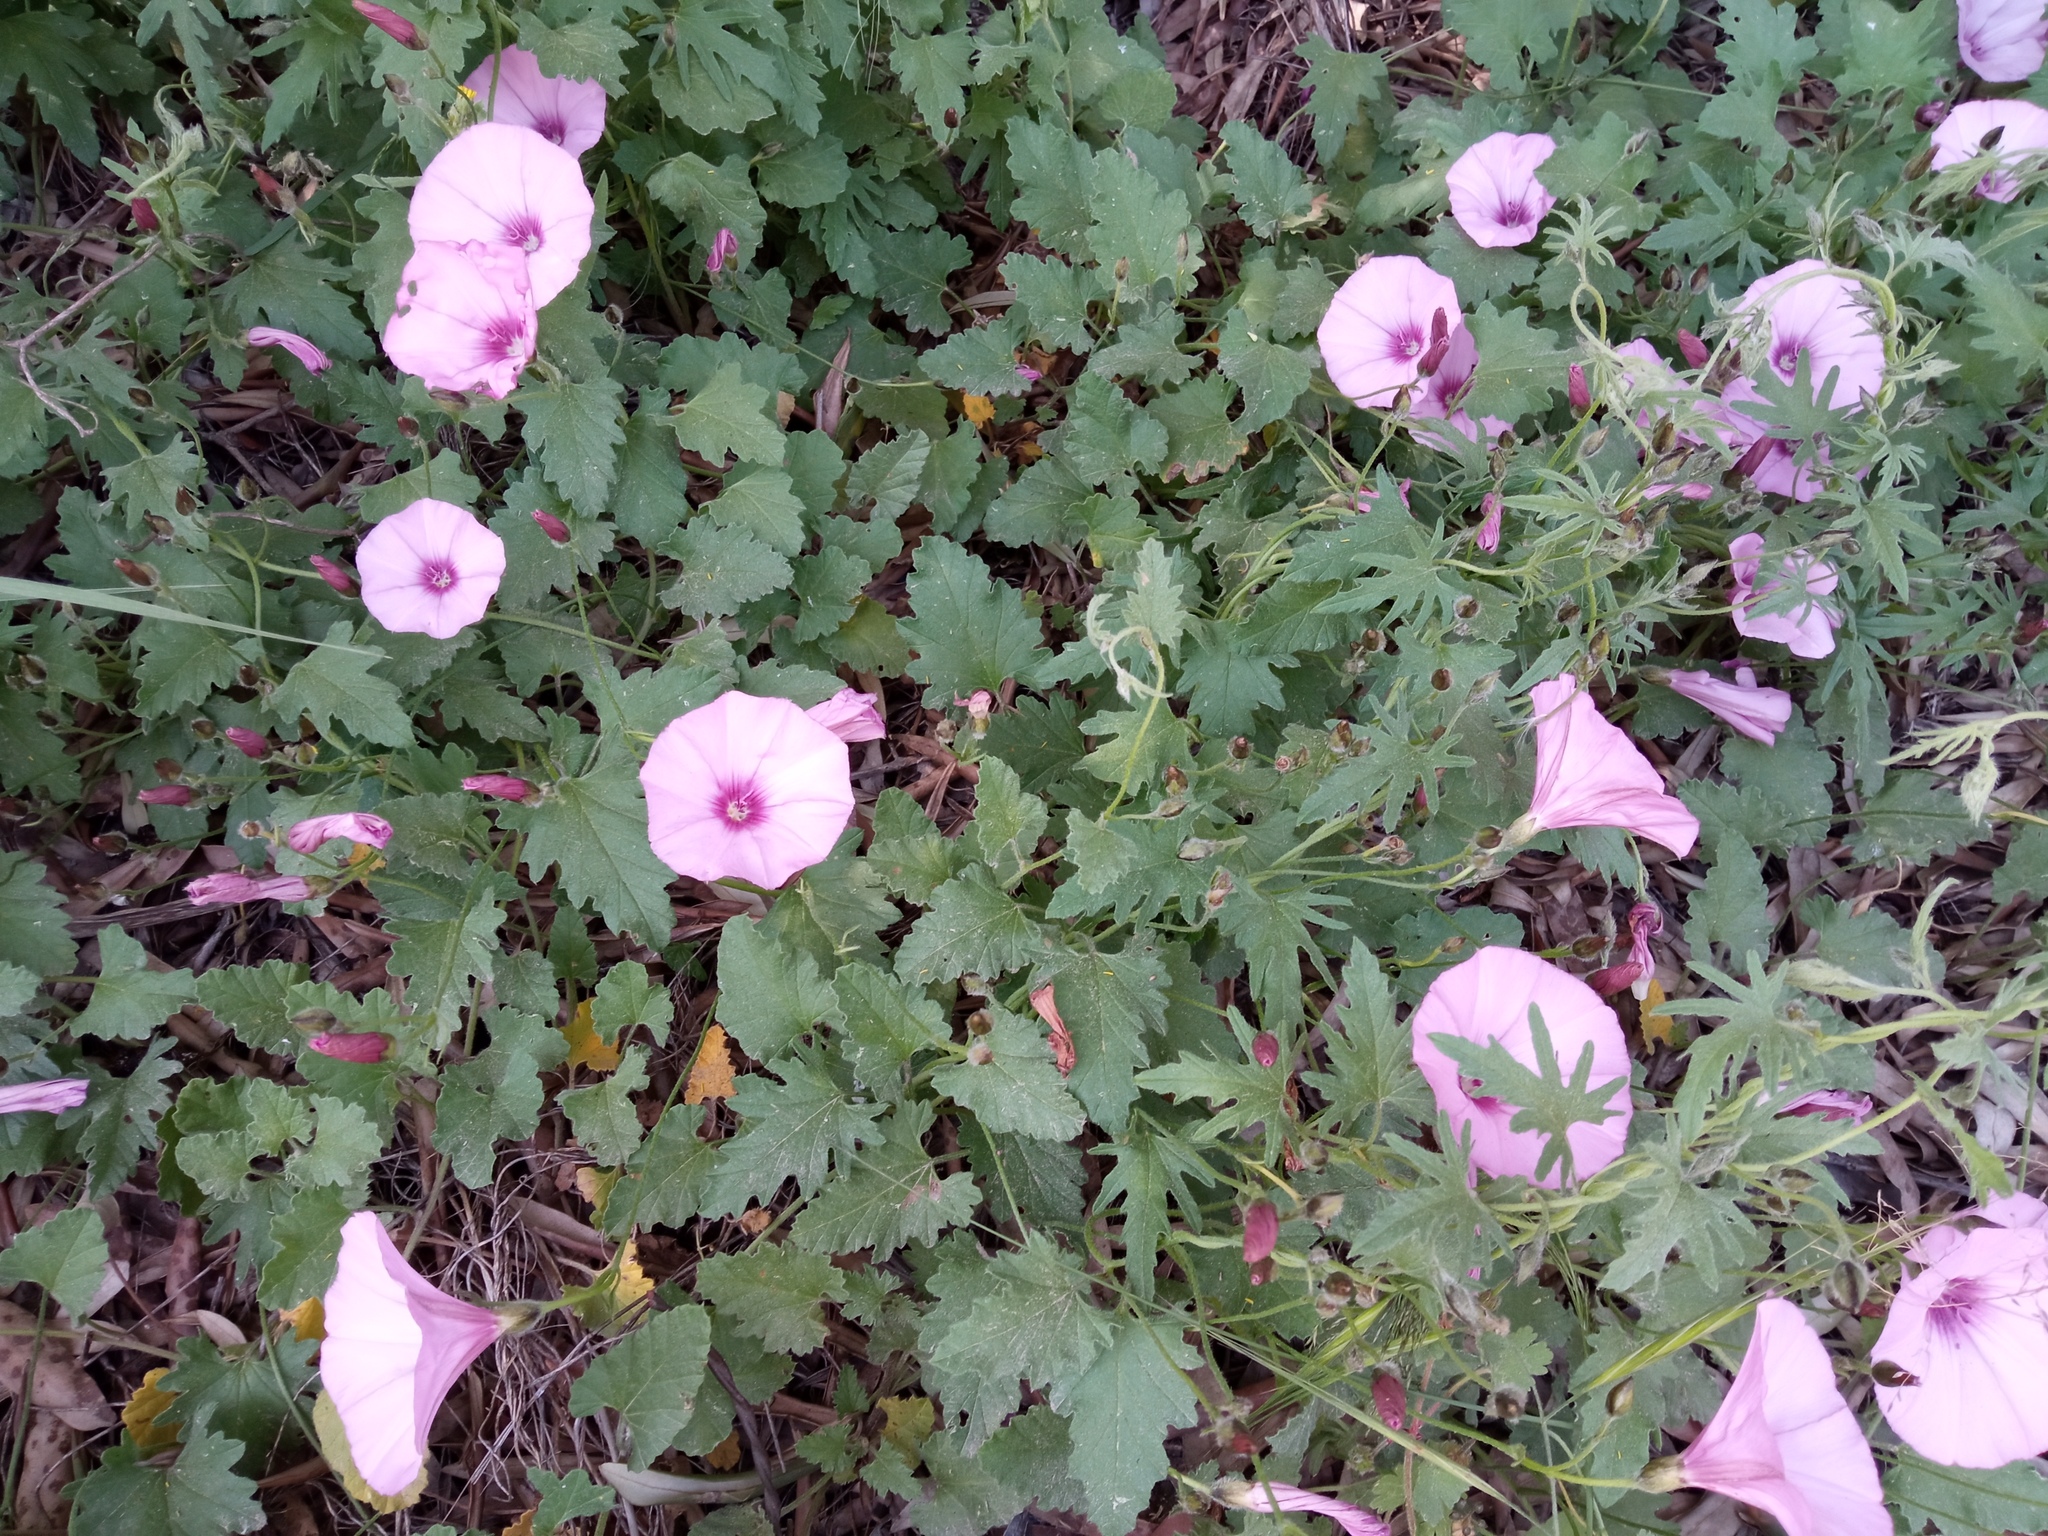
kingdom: Plantae
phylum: Tracheophyta
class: Magnoliopsida
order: Solanales
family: Convolvulaceae
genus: Convolvulus
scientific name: Convolvulus althaeoides
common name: Mallow bindweed
